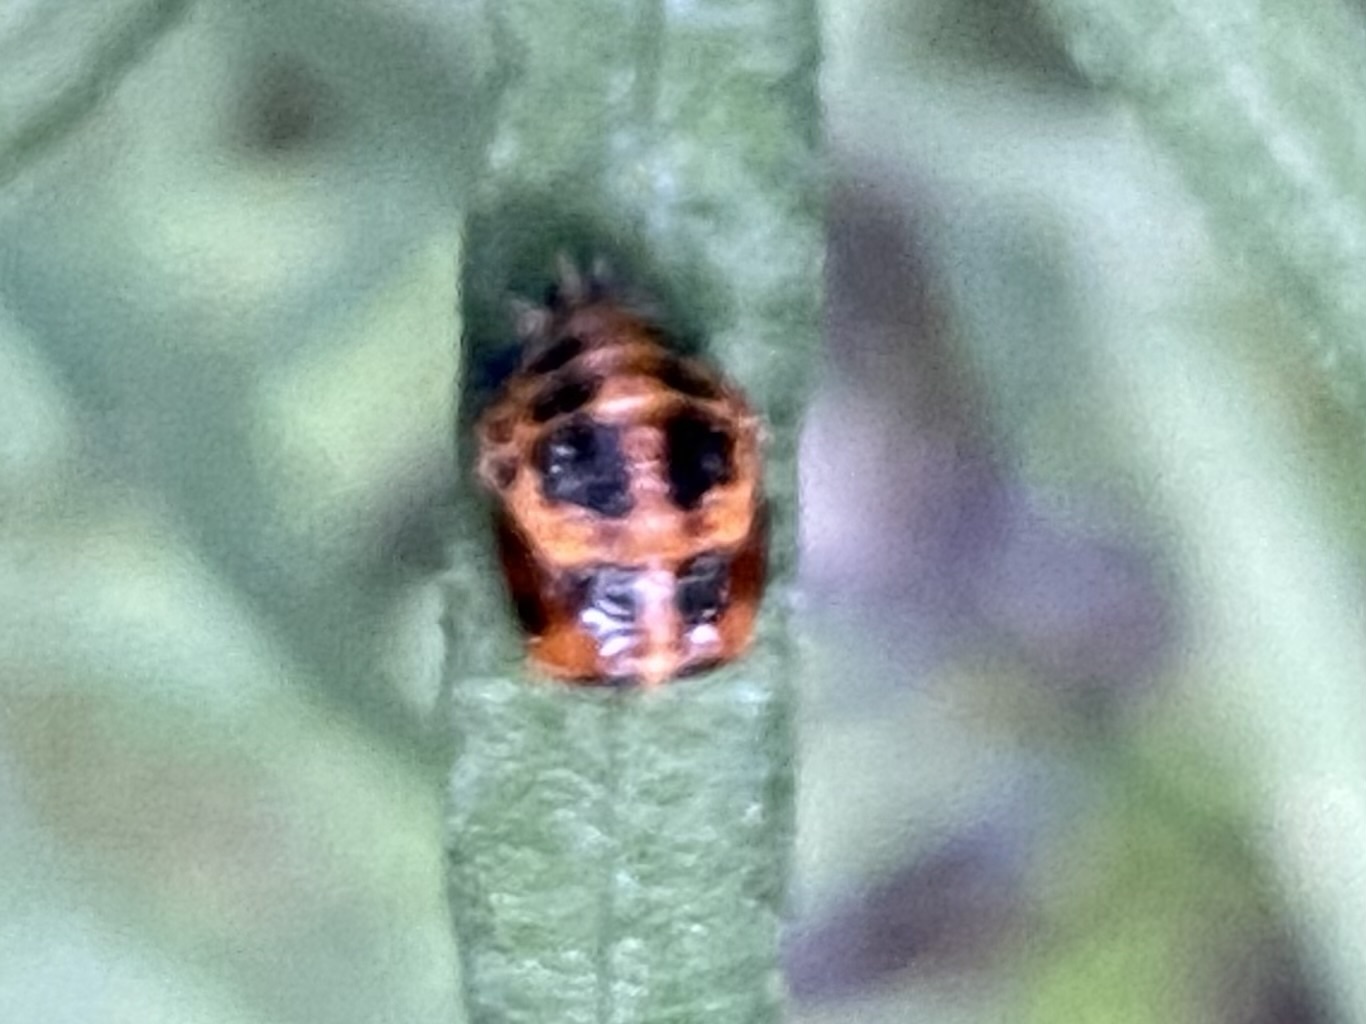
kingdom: Animalia
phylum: Arthropoda
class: Insecta
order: Coleoptera
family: Coccinellidae
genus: Harmonia
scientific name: Harmonia axyridis
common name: Harlequin ladybird
